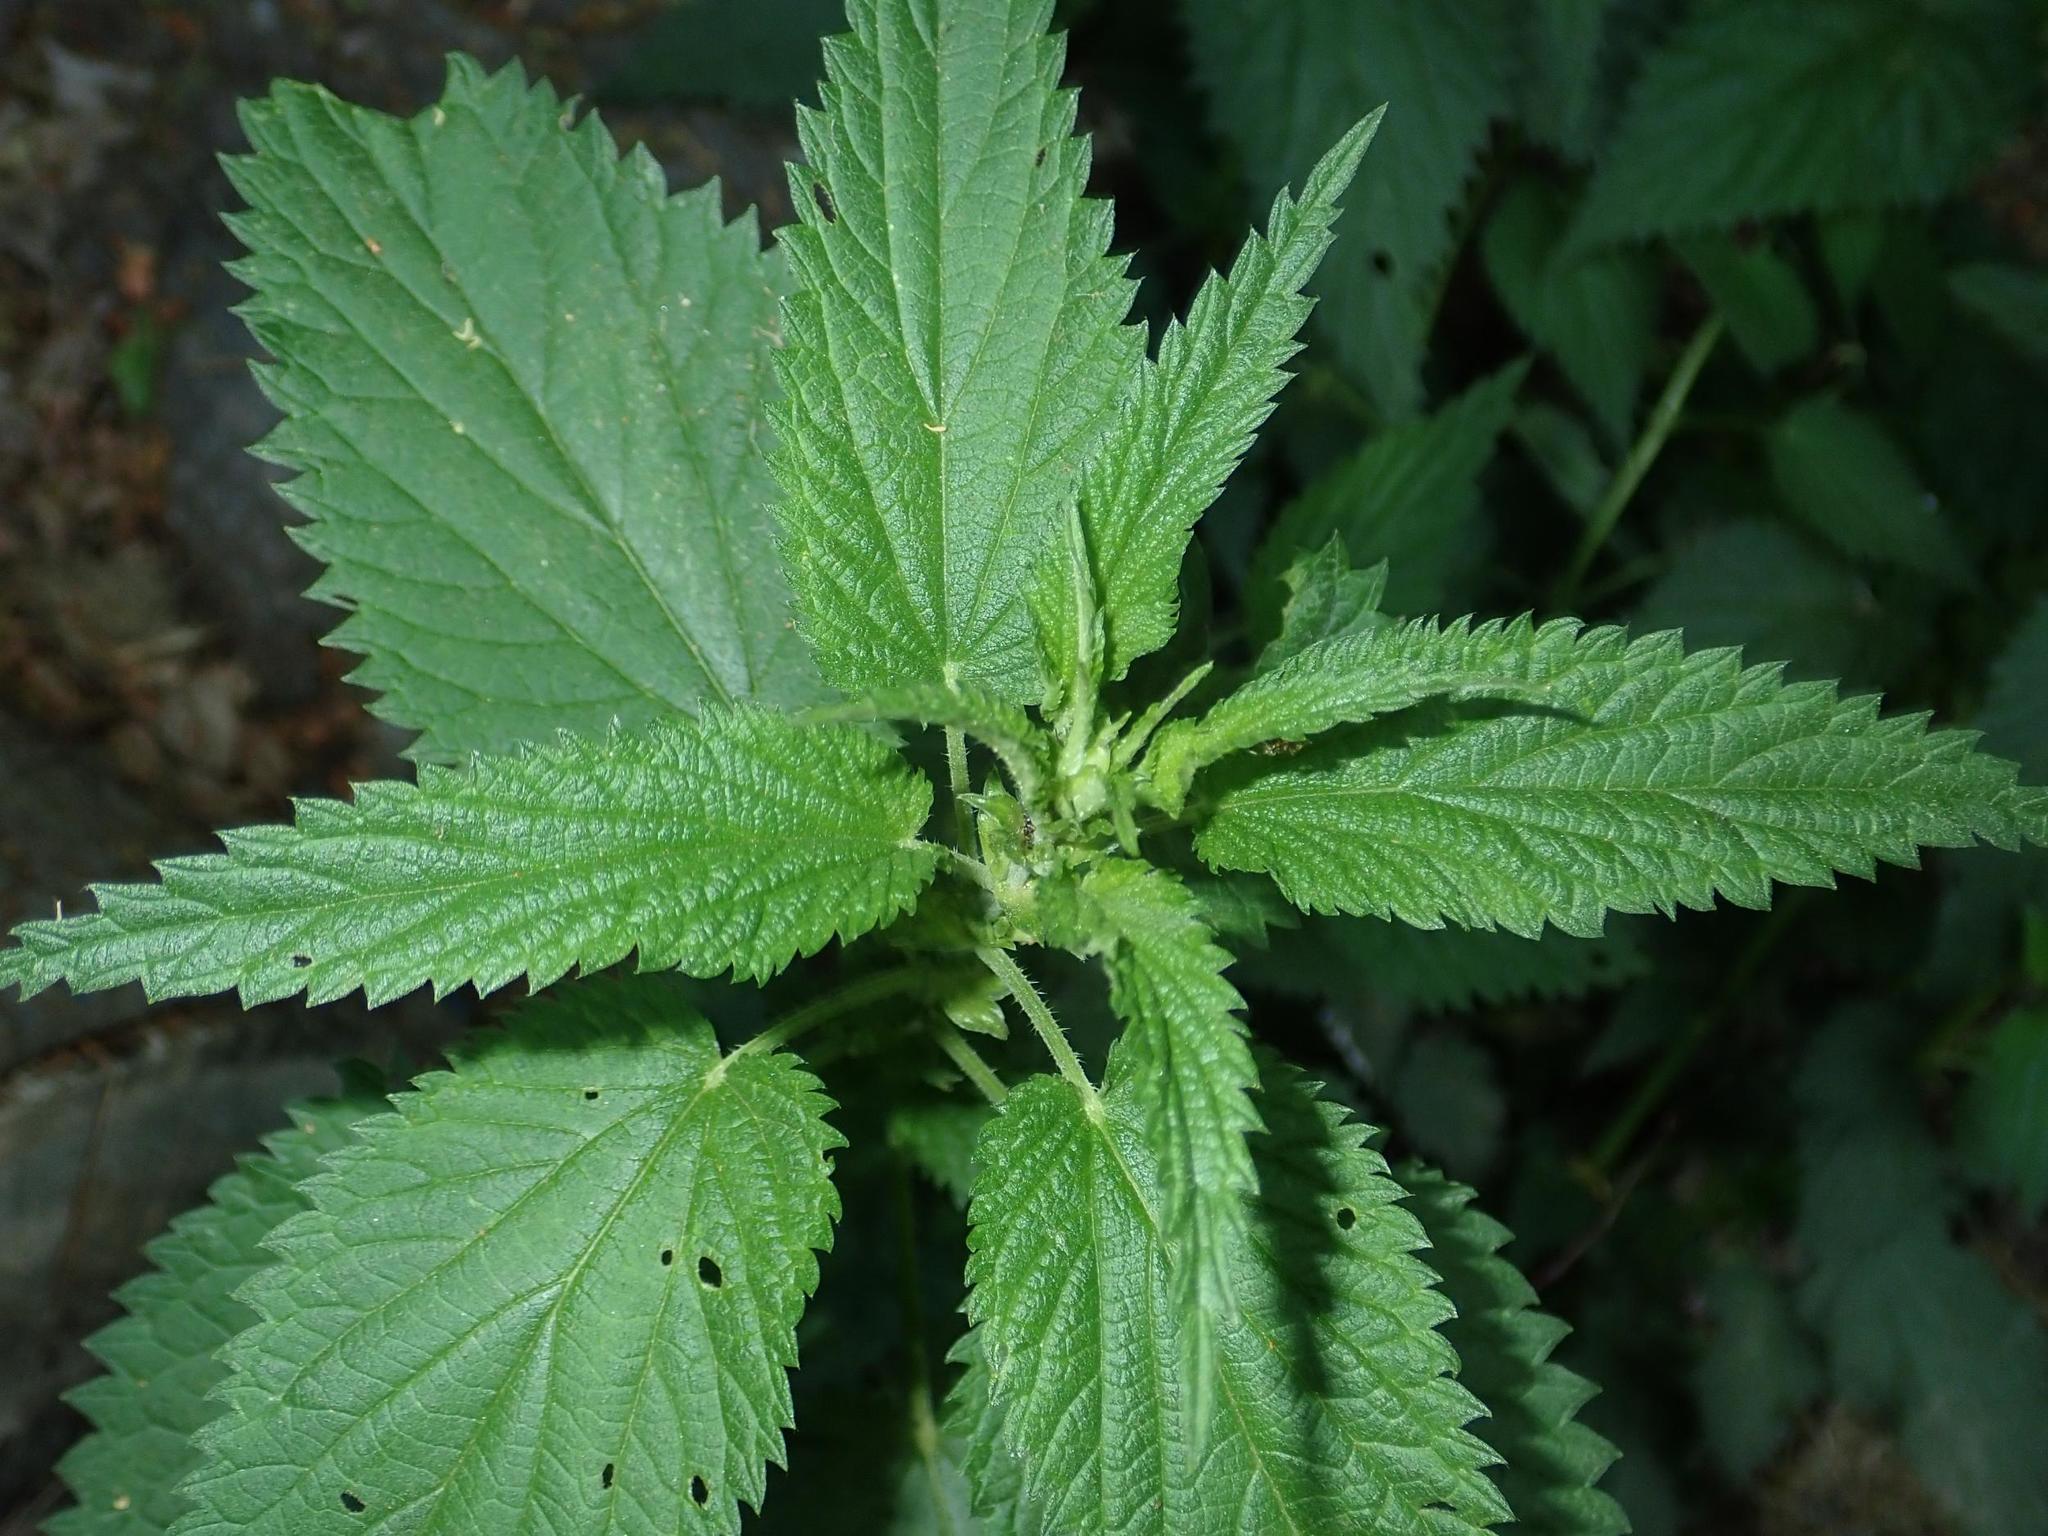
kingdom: Plantae
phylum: Tracheophyta
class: Magnoliopsida
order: Rosales
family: Urticaceae
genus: Urtica
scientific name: Urtica dioica
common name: Common nettle
